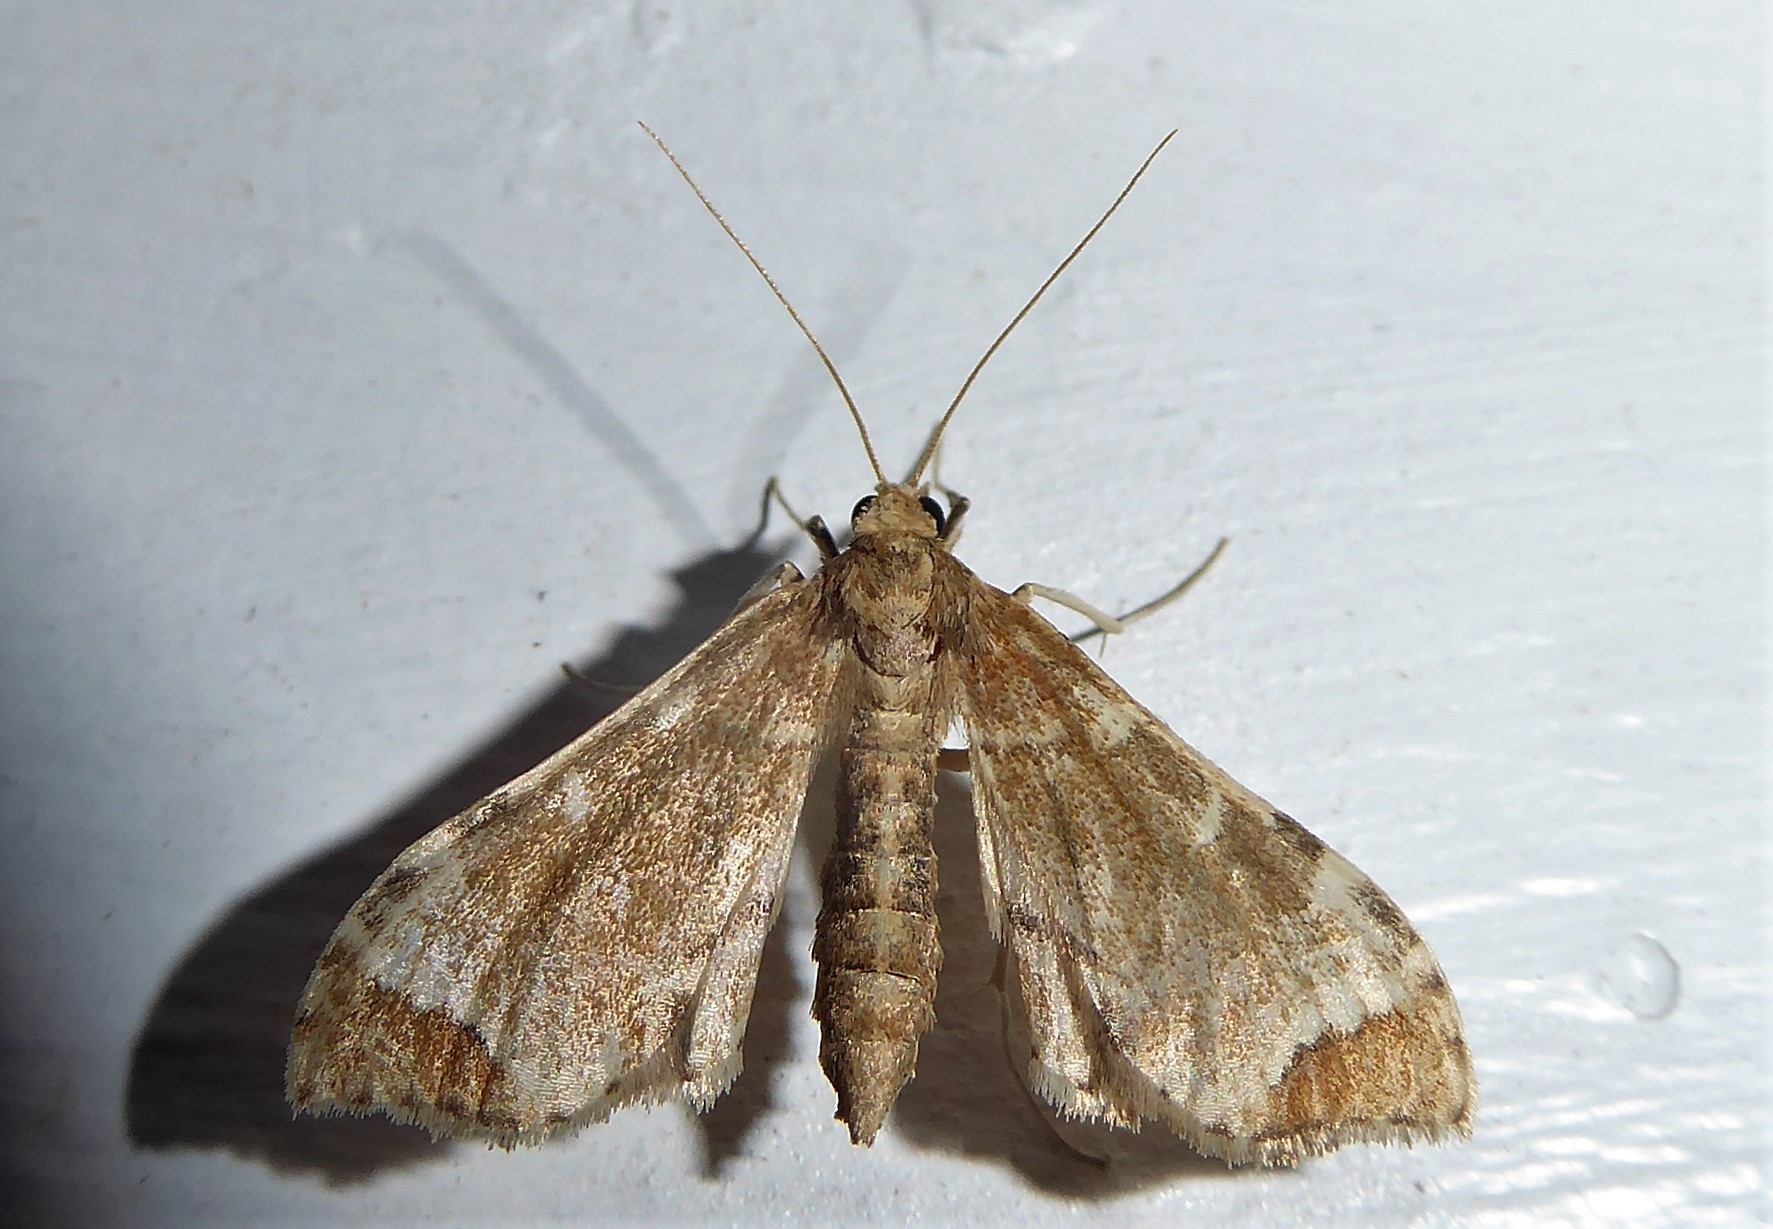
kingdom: Animalia
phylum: Arthropoda
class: Insecta
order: Lepidoptera
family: Crambidae
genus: Sceliodes
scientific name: Sceliodes cordalis
